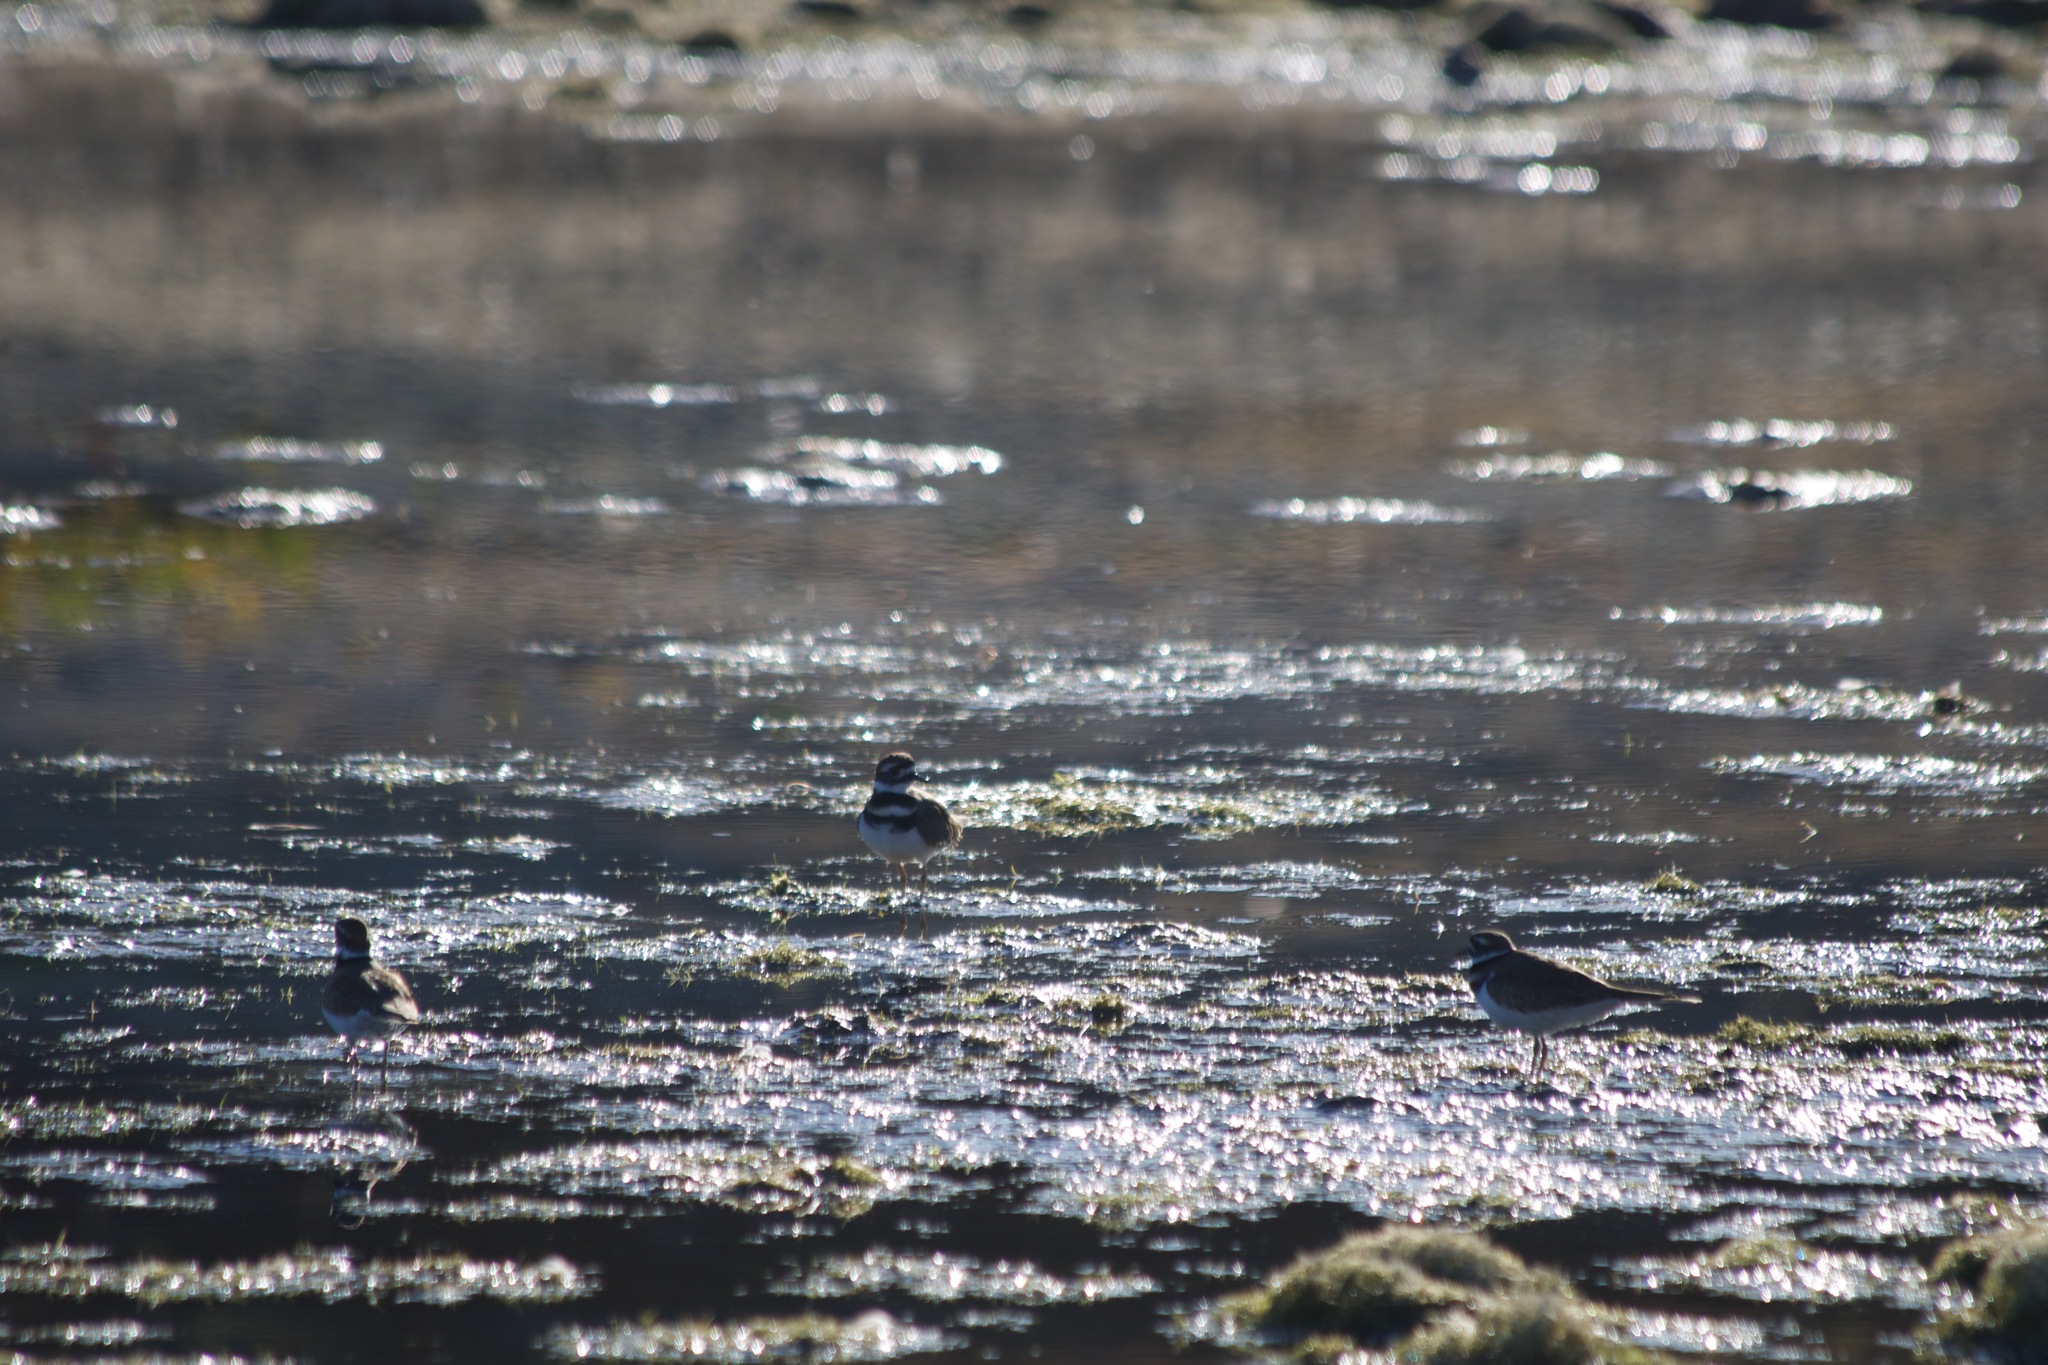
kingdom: Animalia
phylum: Chordata
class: Aves
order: Charadriiformes
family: Charadriidae
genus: Charadrius
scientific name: Charadrius vociferus
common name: Killdeer
